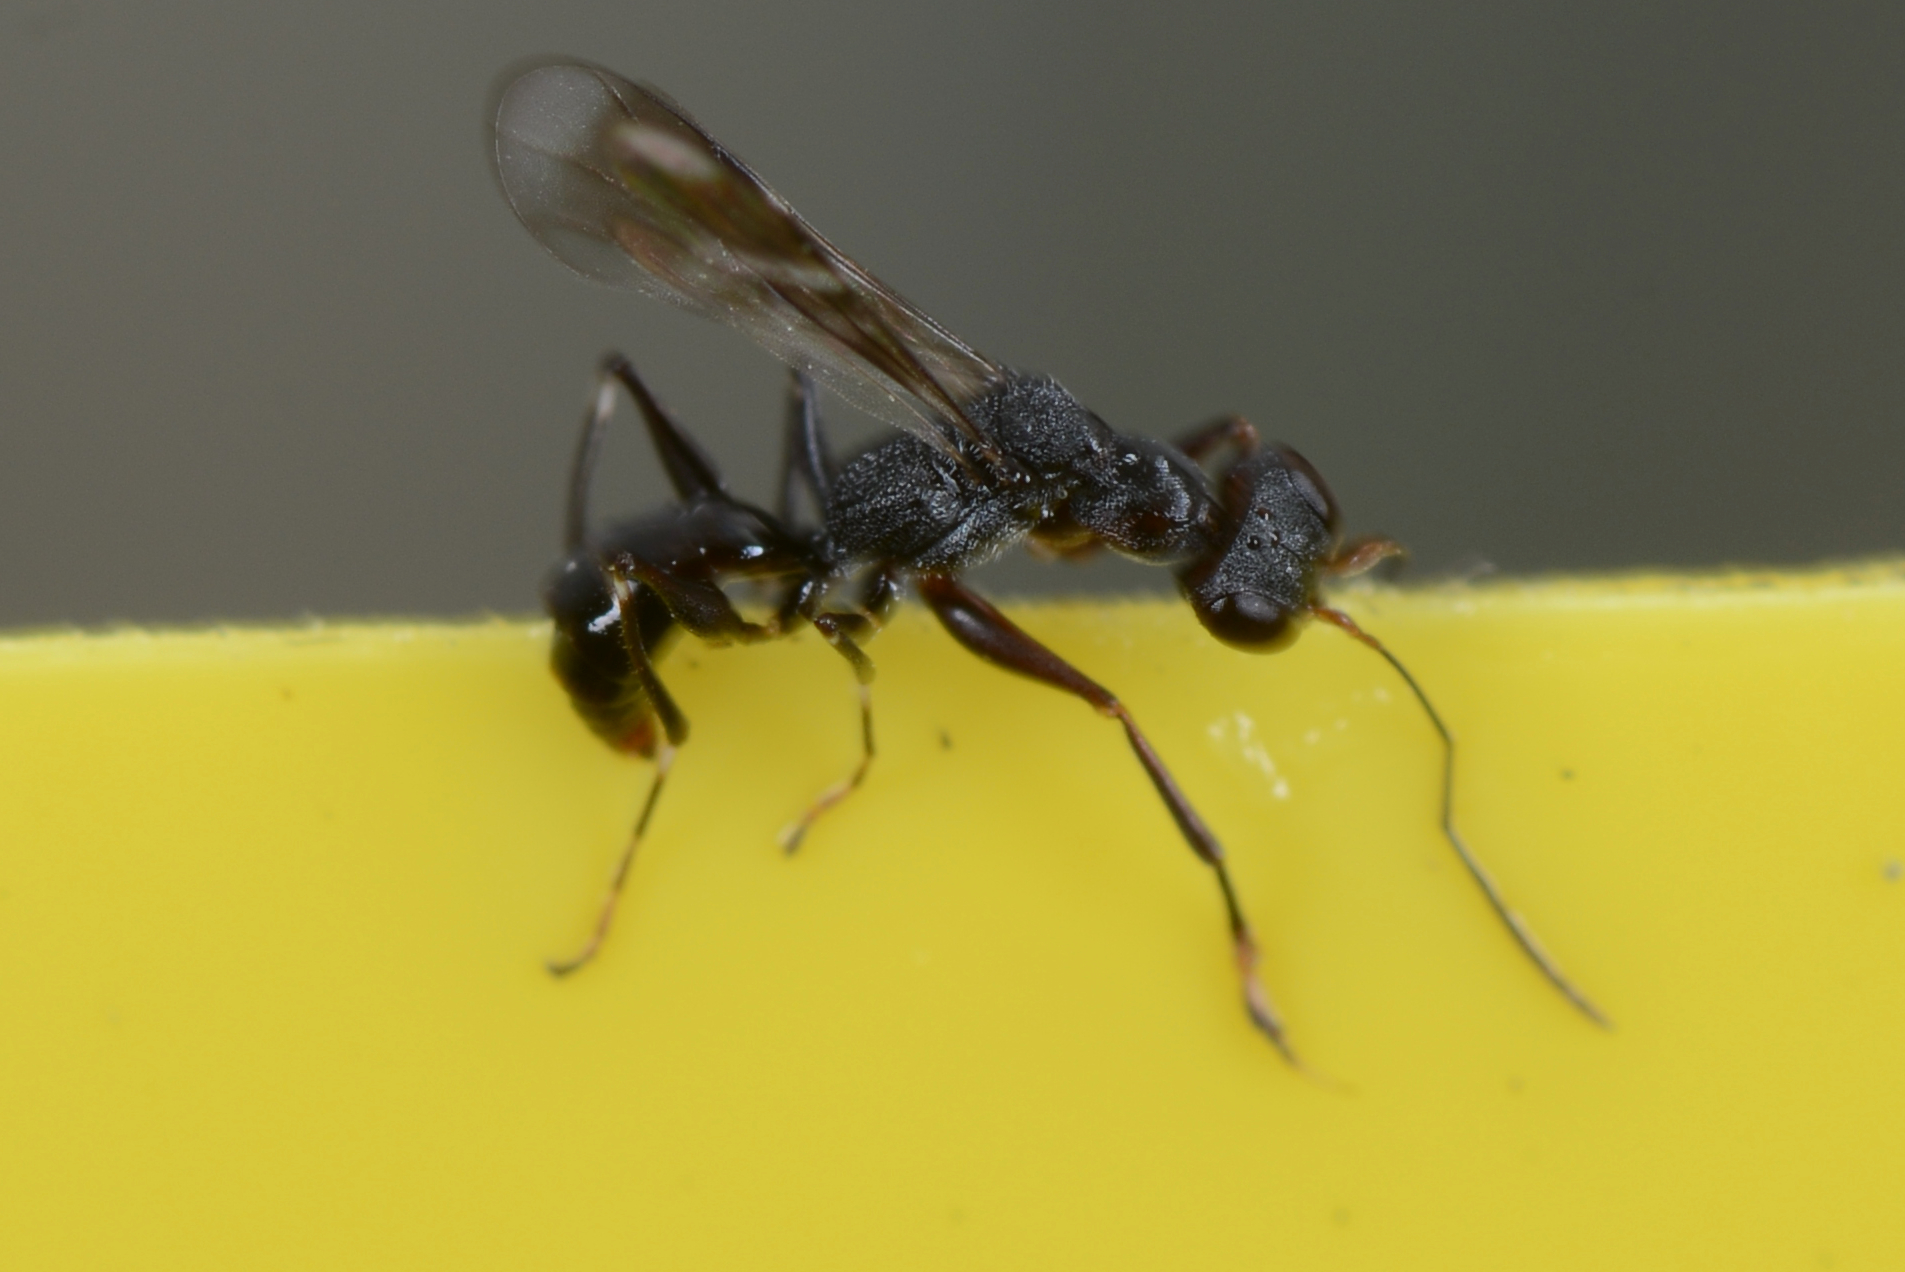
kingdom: Animalia
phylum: Arthropoda
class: Insecta
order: Hymenoptera
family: Dryinidae
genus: Dryinus
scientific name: Dryinus koebelei
